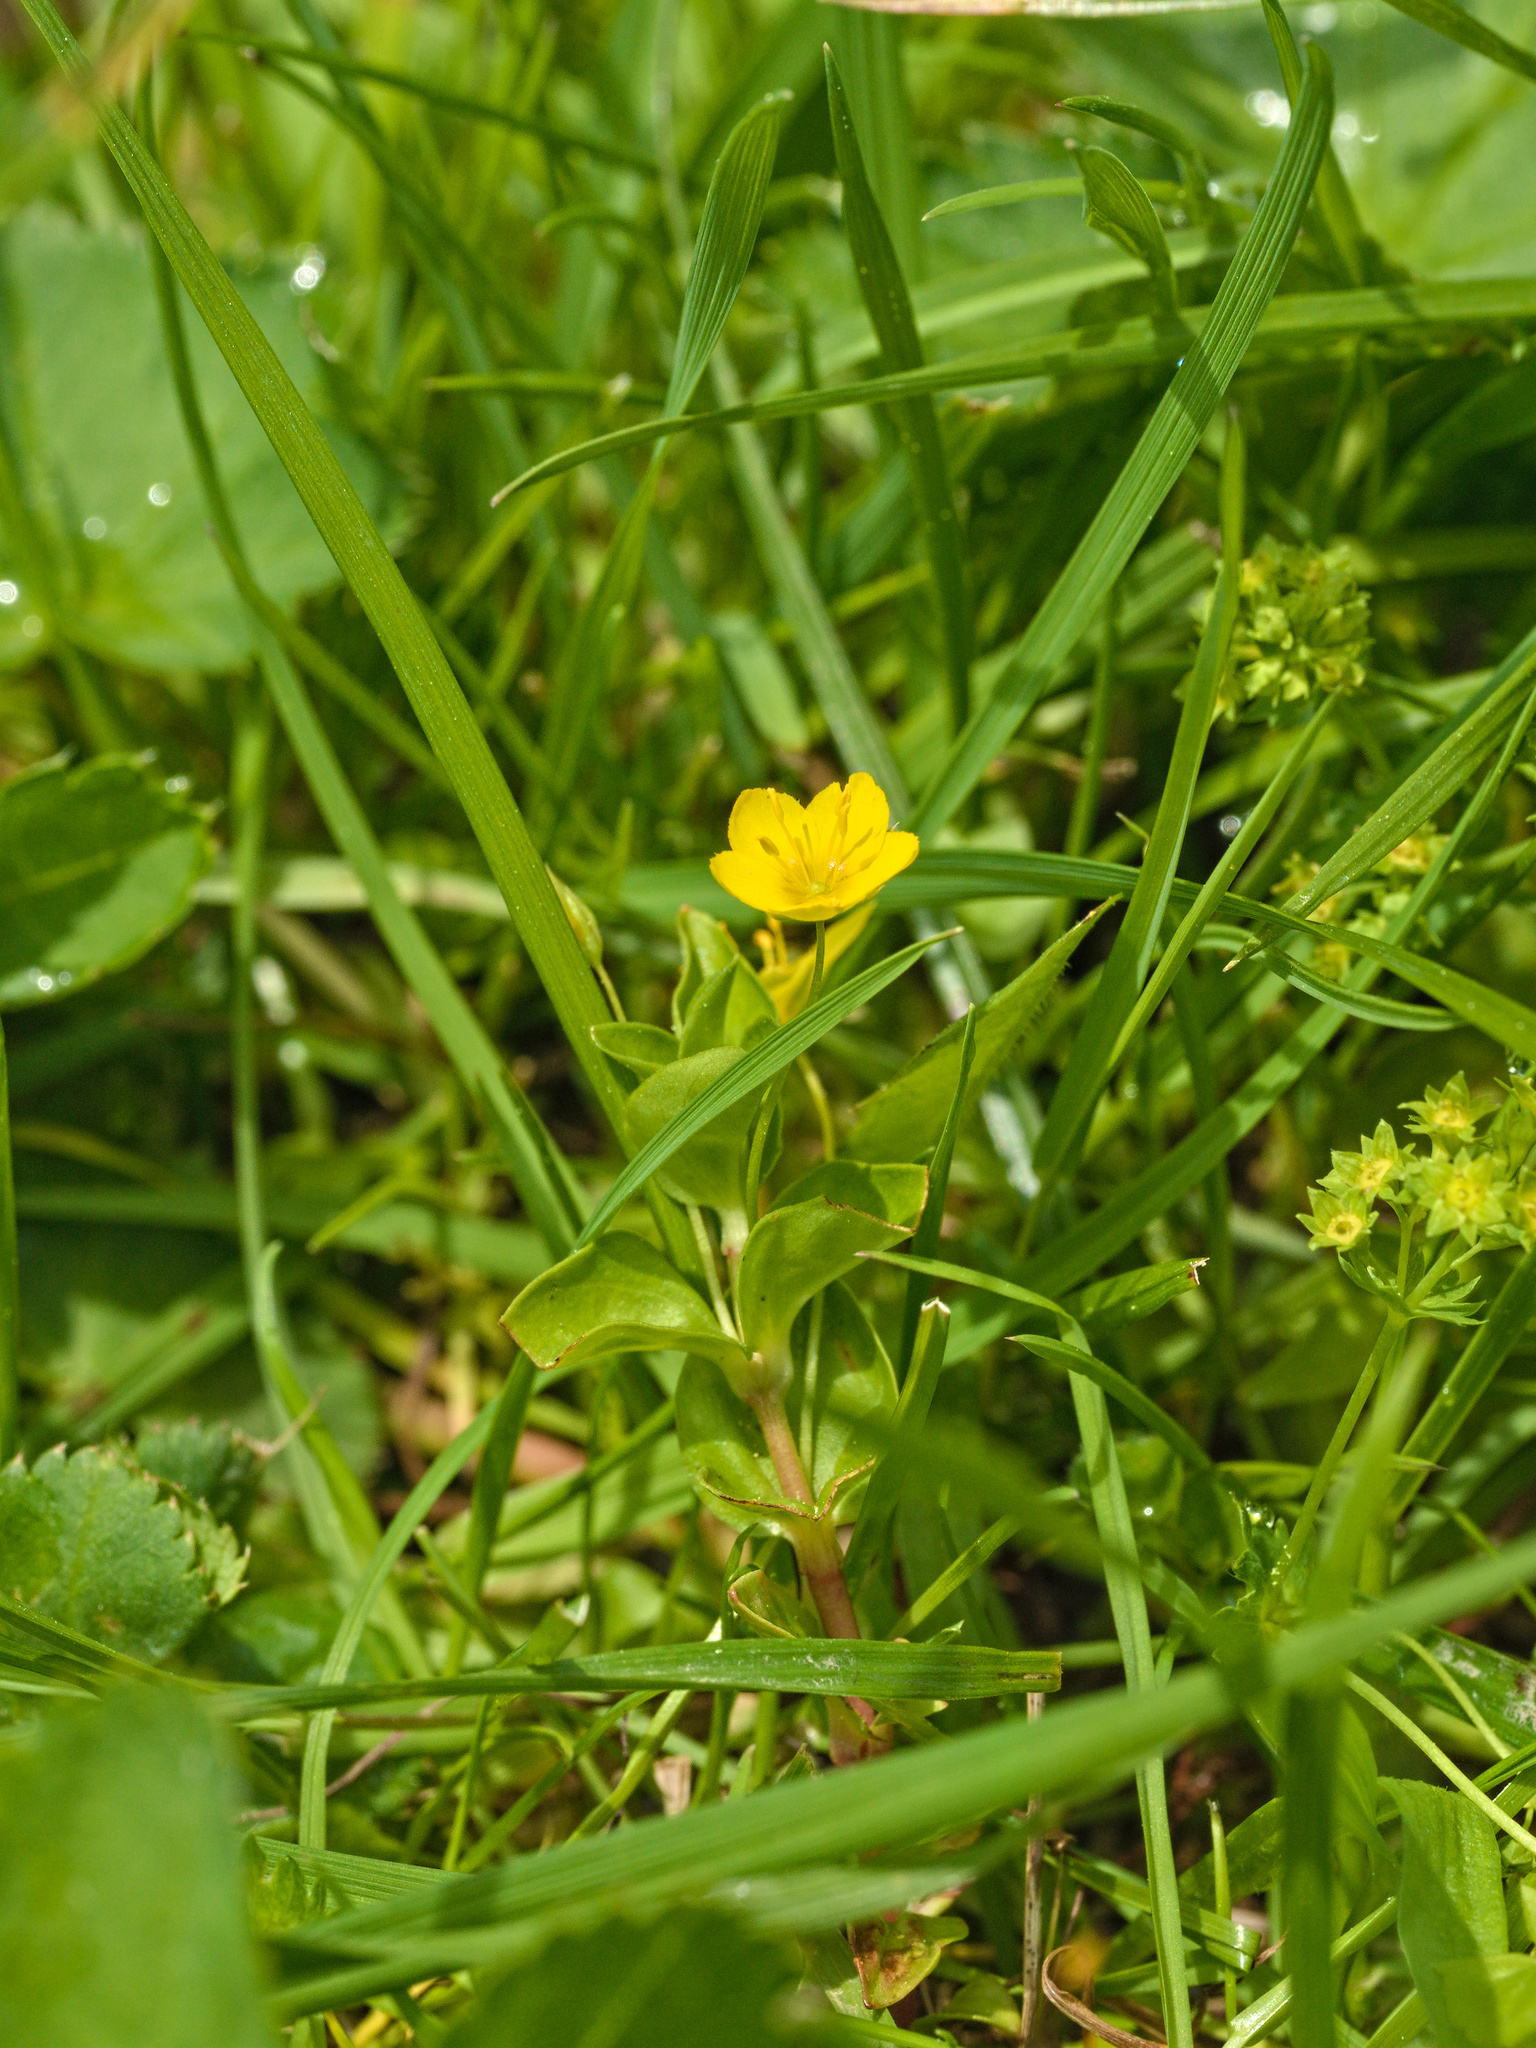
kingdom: Plantae
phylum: Tracheophyta
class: Magnoliopsida
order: Ericales
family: Primulaceae
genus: Lysimachia
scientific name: Lysimachia nemorum
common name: Yellow pimpernel
